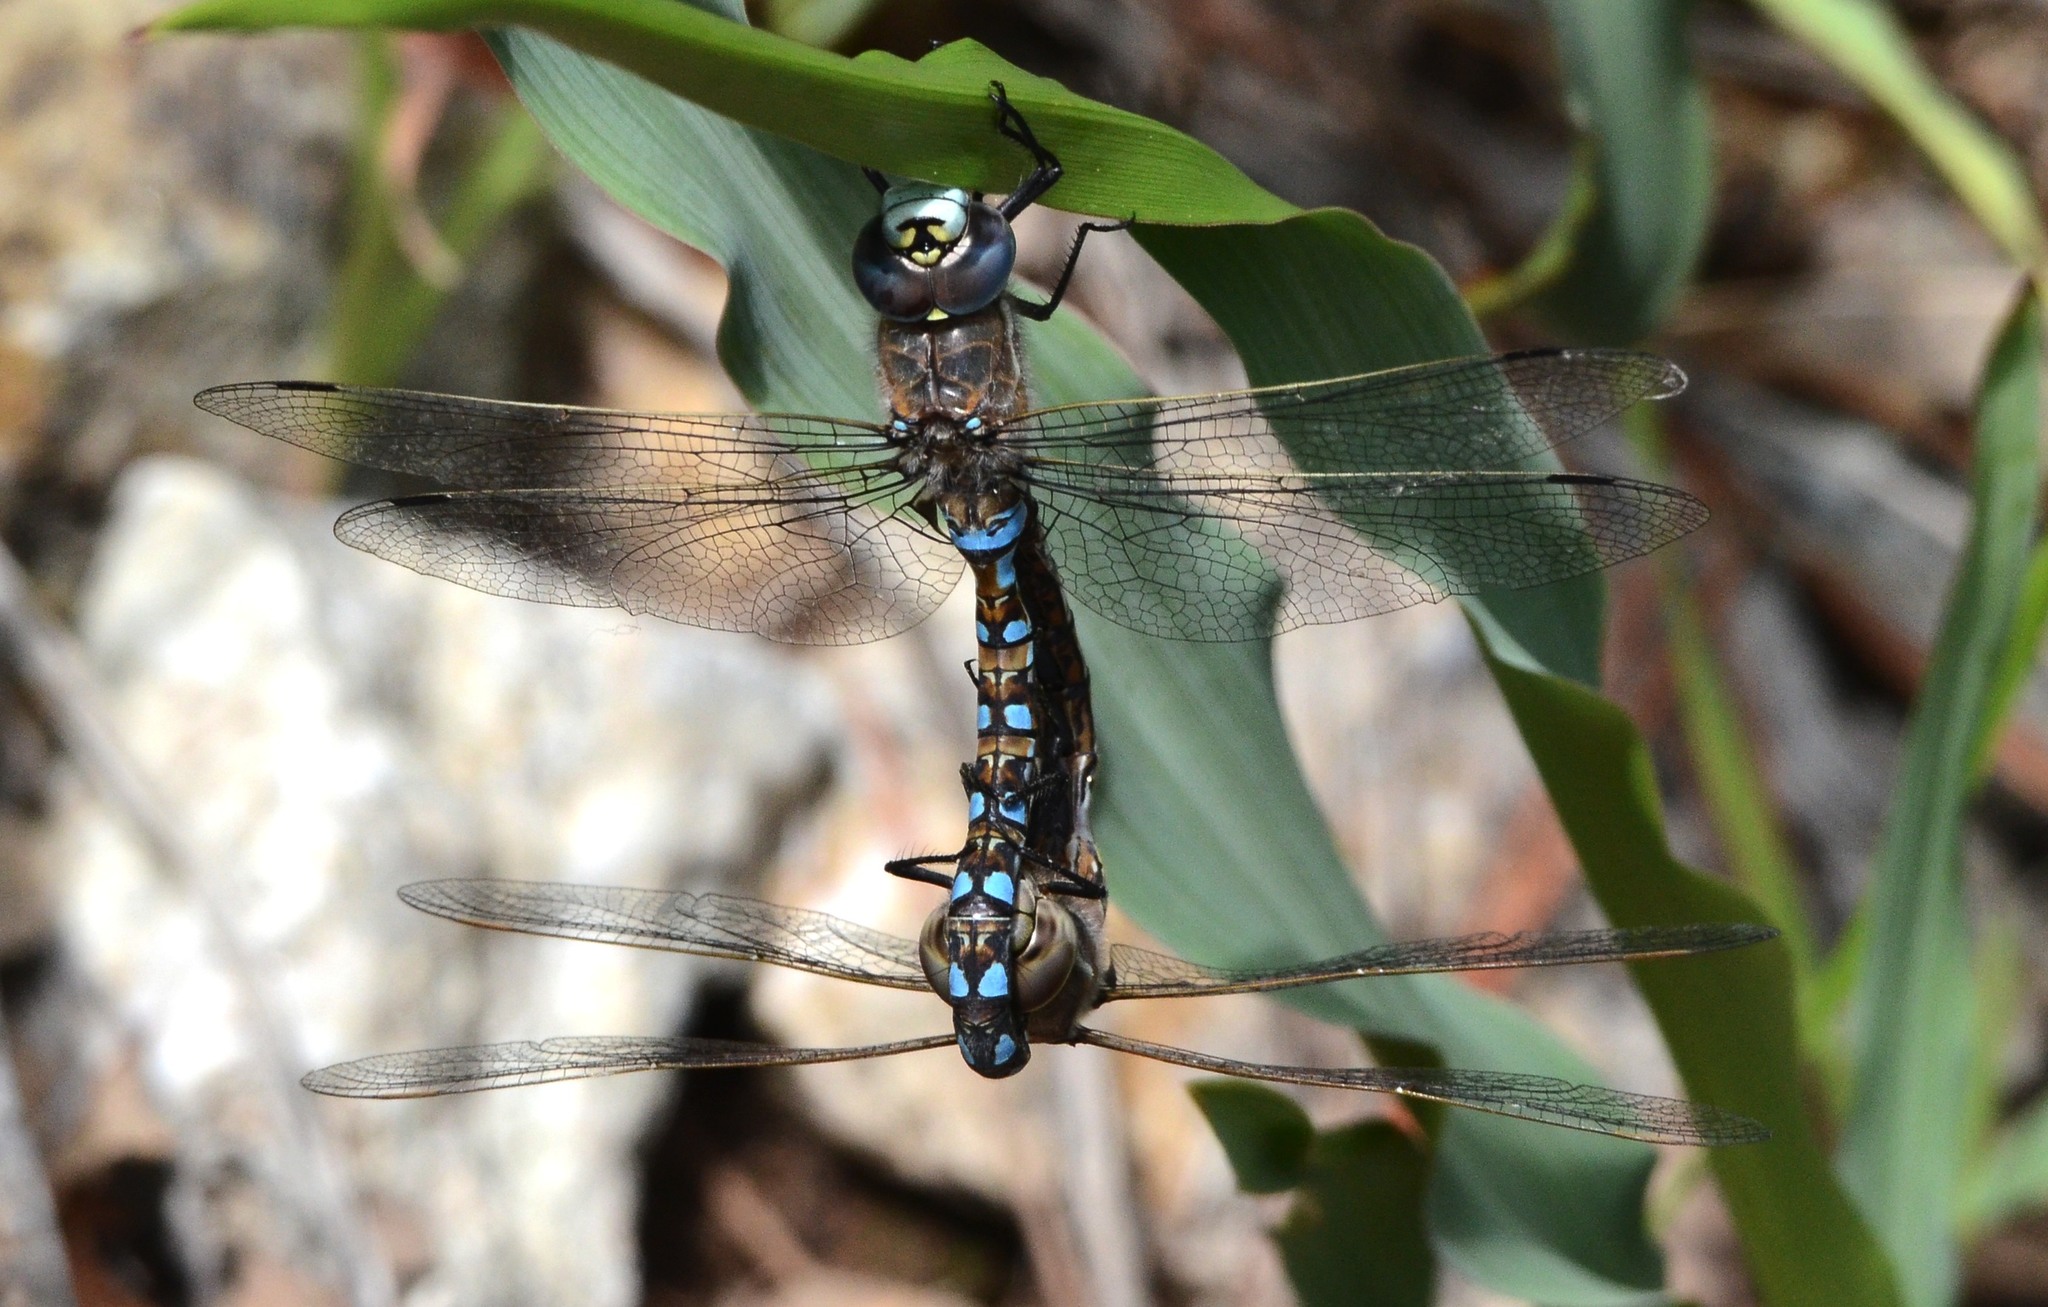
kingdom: Animalia
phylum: Arthropoda
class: Insecta
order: Odonata
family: Aeshnidae
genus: Rhionaeschna
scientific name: Rhionaeschna californica
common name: California darner
